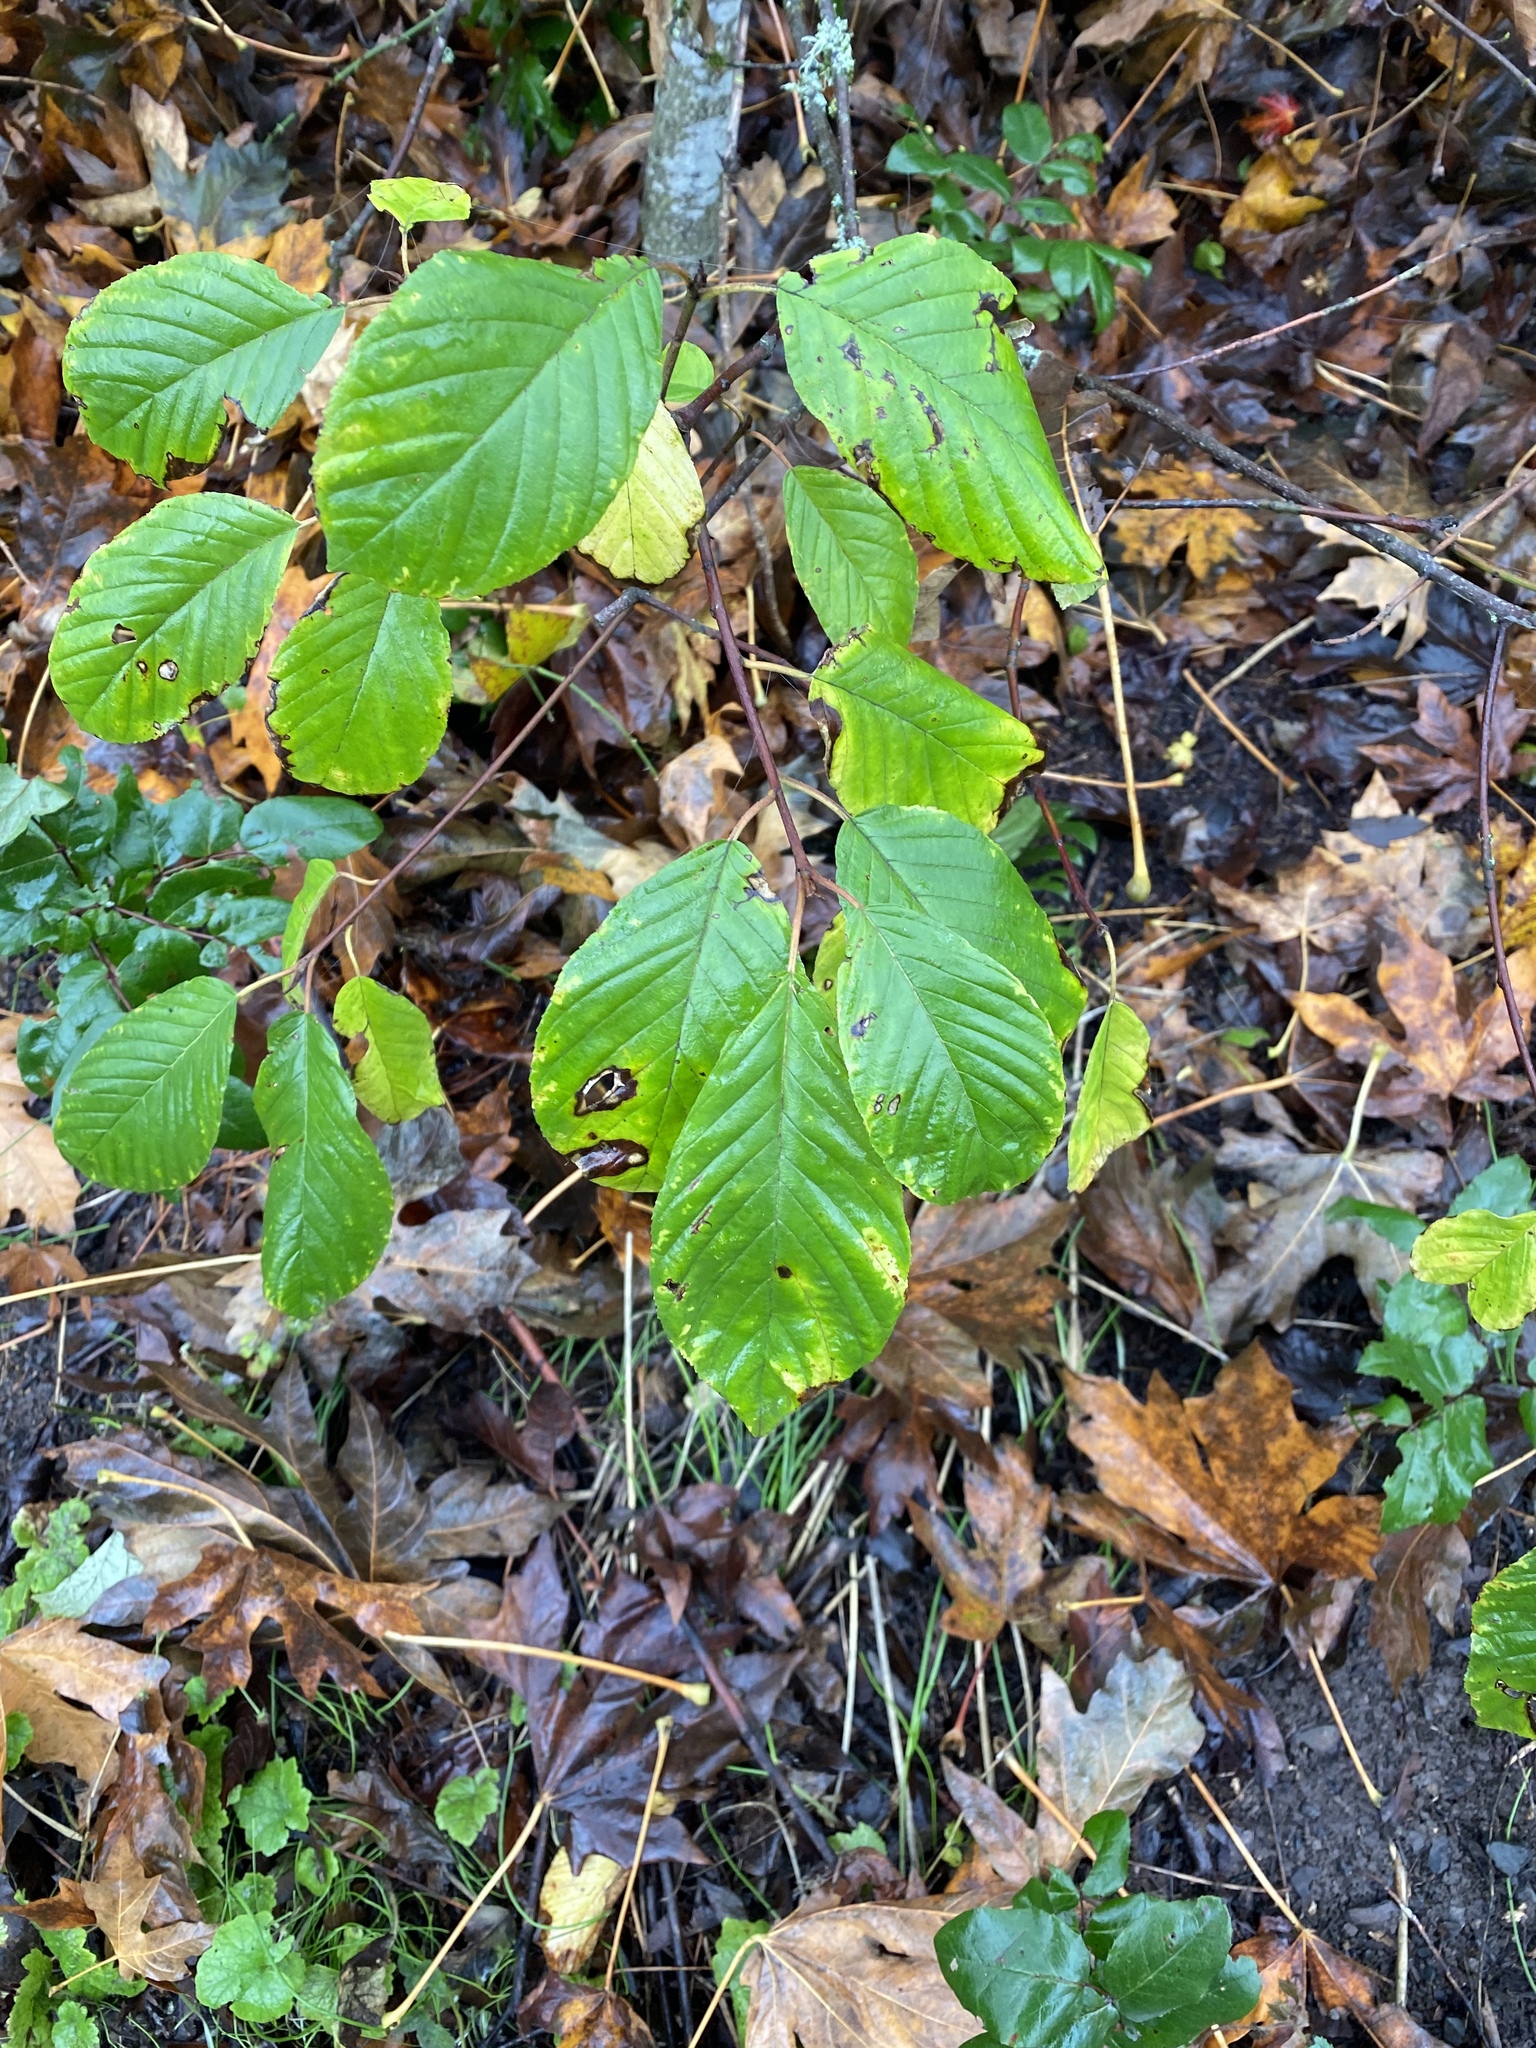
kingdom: Plantae
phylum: Tracheophyta
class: Magnoliopsida
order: Rosales
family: Rhamnaceae
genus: Frangula
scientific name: Frangula purshiana
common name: Cascara buckthorn
